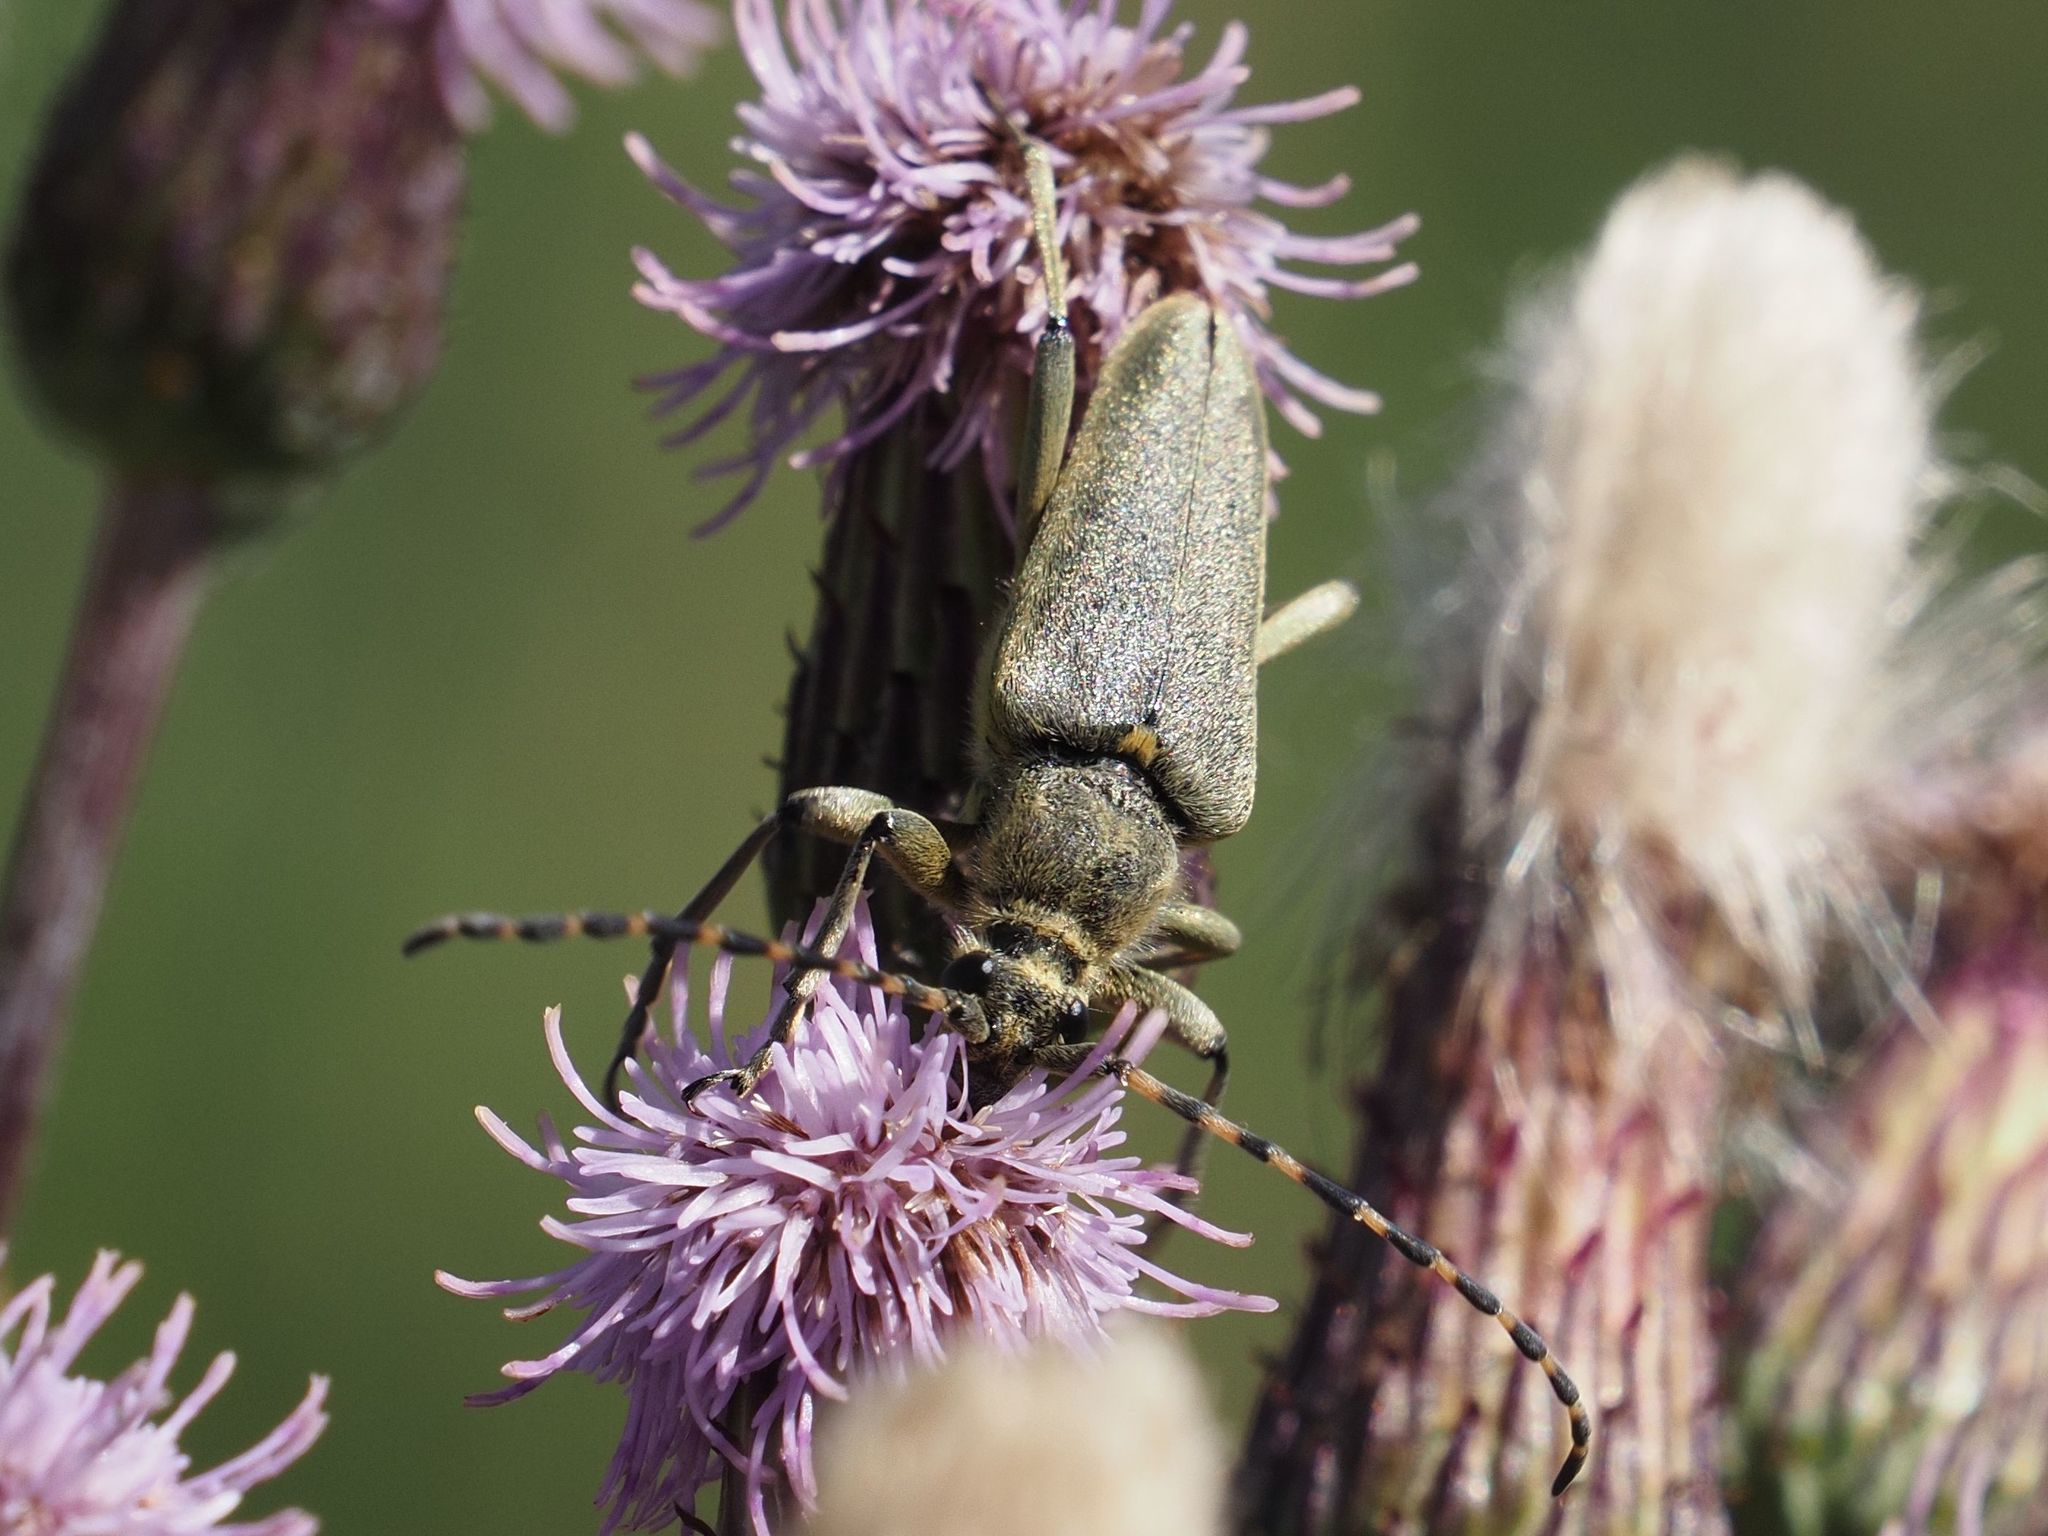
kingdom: Animalia
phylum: Arthropoda
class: Insecta
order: Coleoptera
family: Cerambycidae
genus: Lepturobosca
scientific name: Lepturobosca virens
